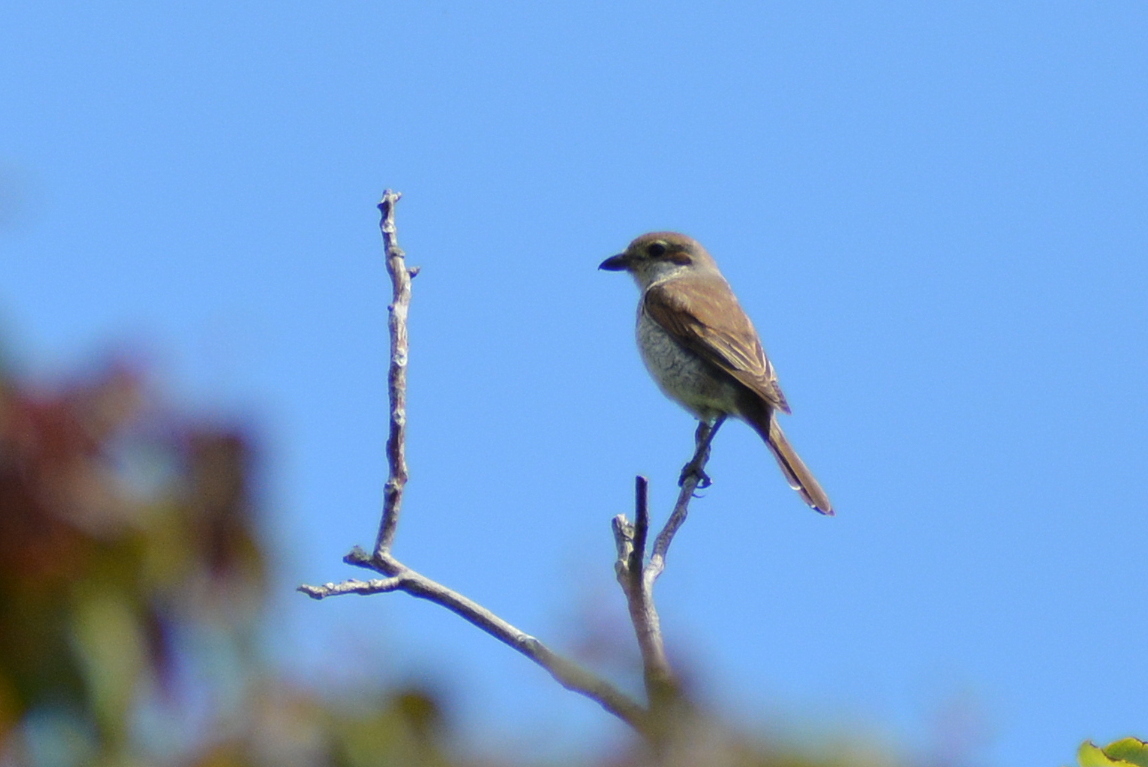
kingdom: Animalia
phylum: Chordata
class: Aves
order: Passeriformes
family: Laniidae
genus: Lanius
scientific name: Lanius collurio
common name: Red-backed shrike
